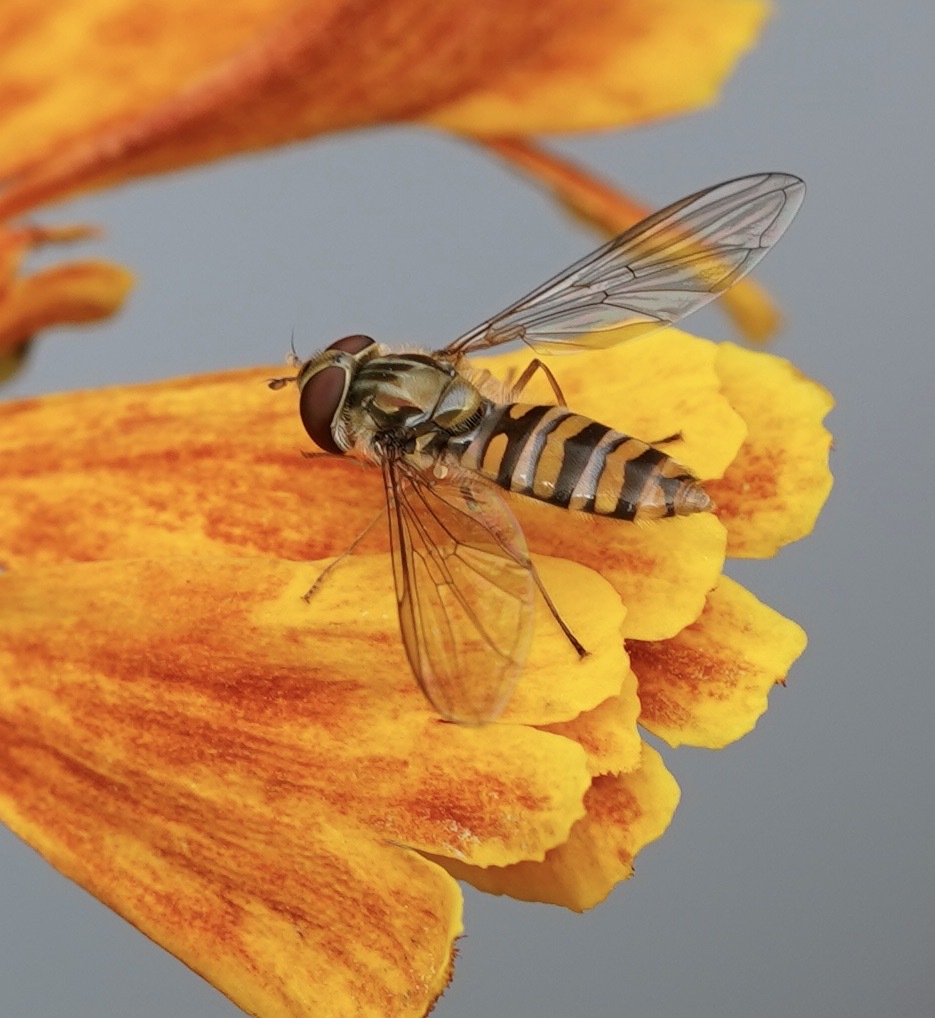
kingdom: Animalia
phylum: Arthropoda
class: Insecta
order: Diptera
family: Syrphidae
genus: Episyrphus
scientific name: Episyrphus balteatus
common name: Marmalade hoverfly
